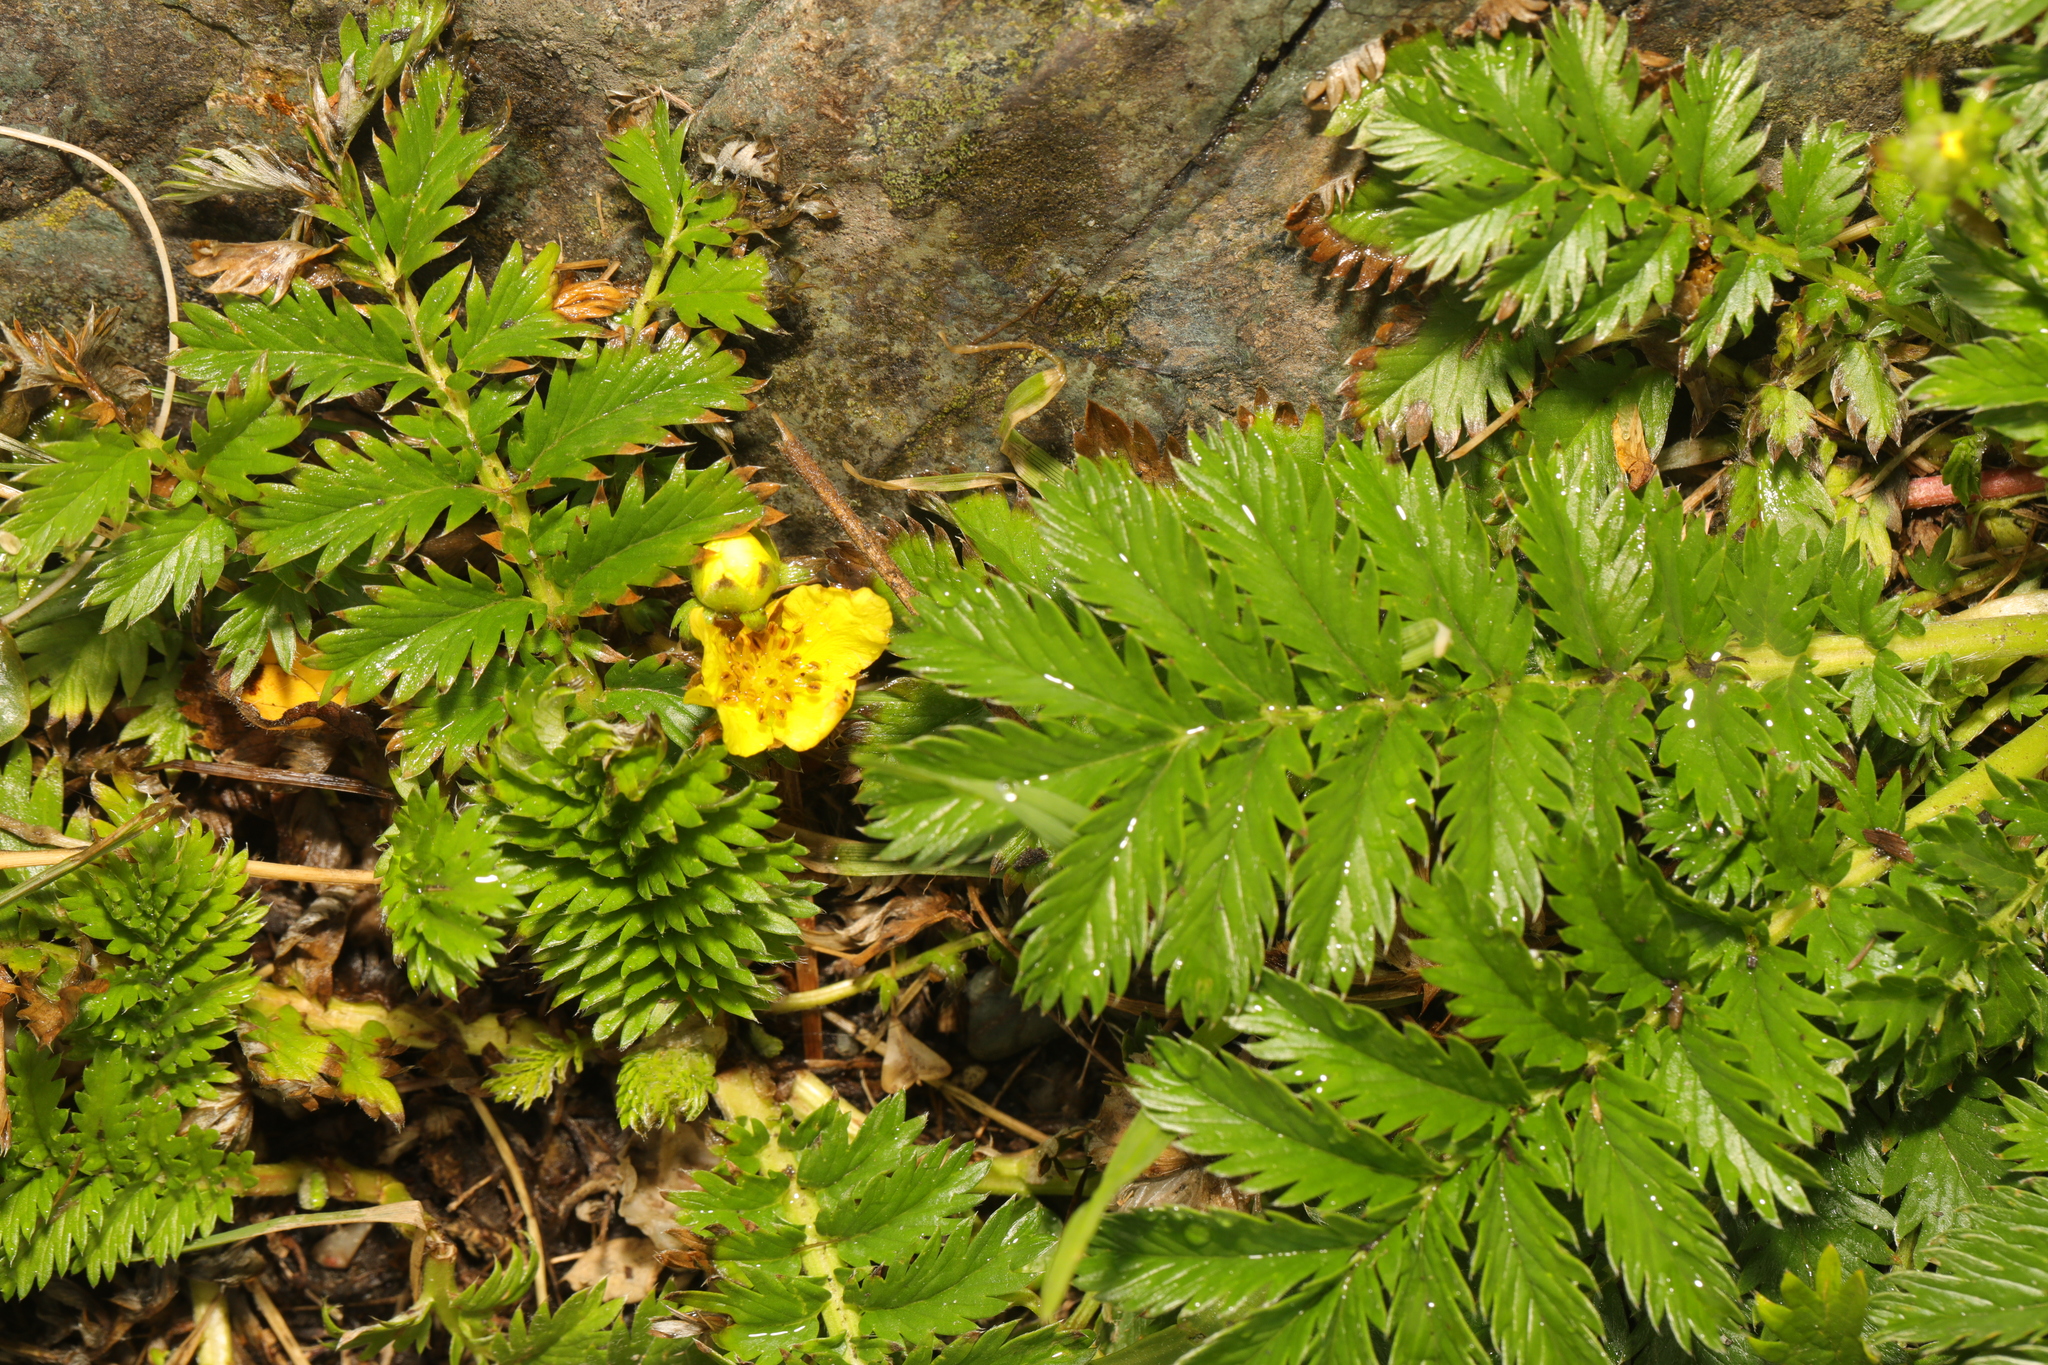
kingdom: Plantae
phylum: Tracheophyta
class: Magnoliopsida
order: Rosales
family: Rosaceae
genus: Argentina
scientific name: Argentina anserina
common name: Common silverweed
